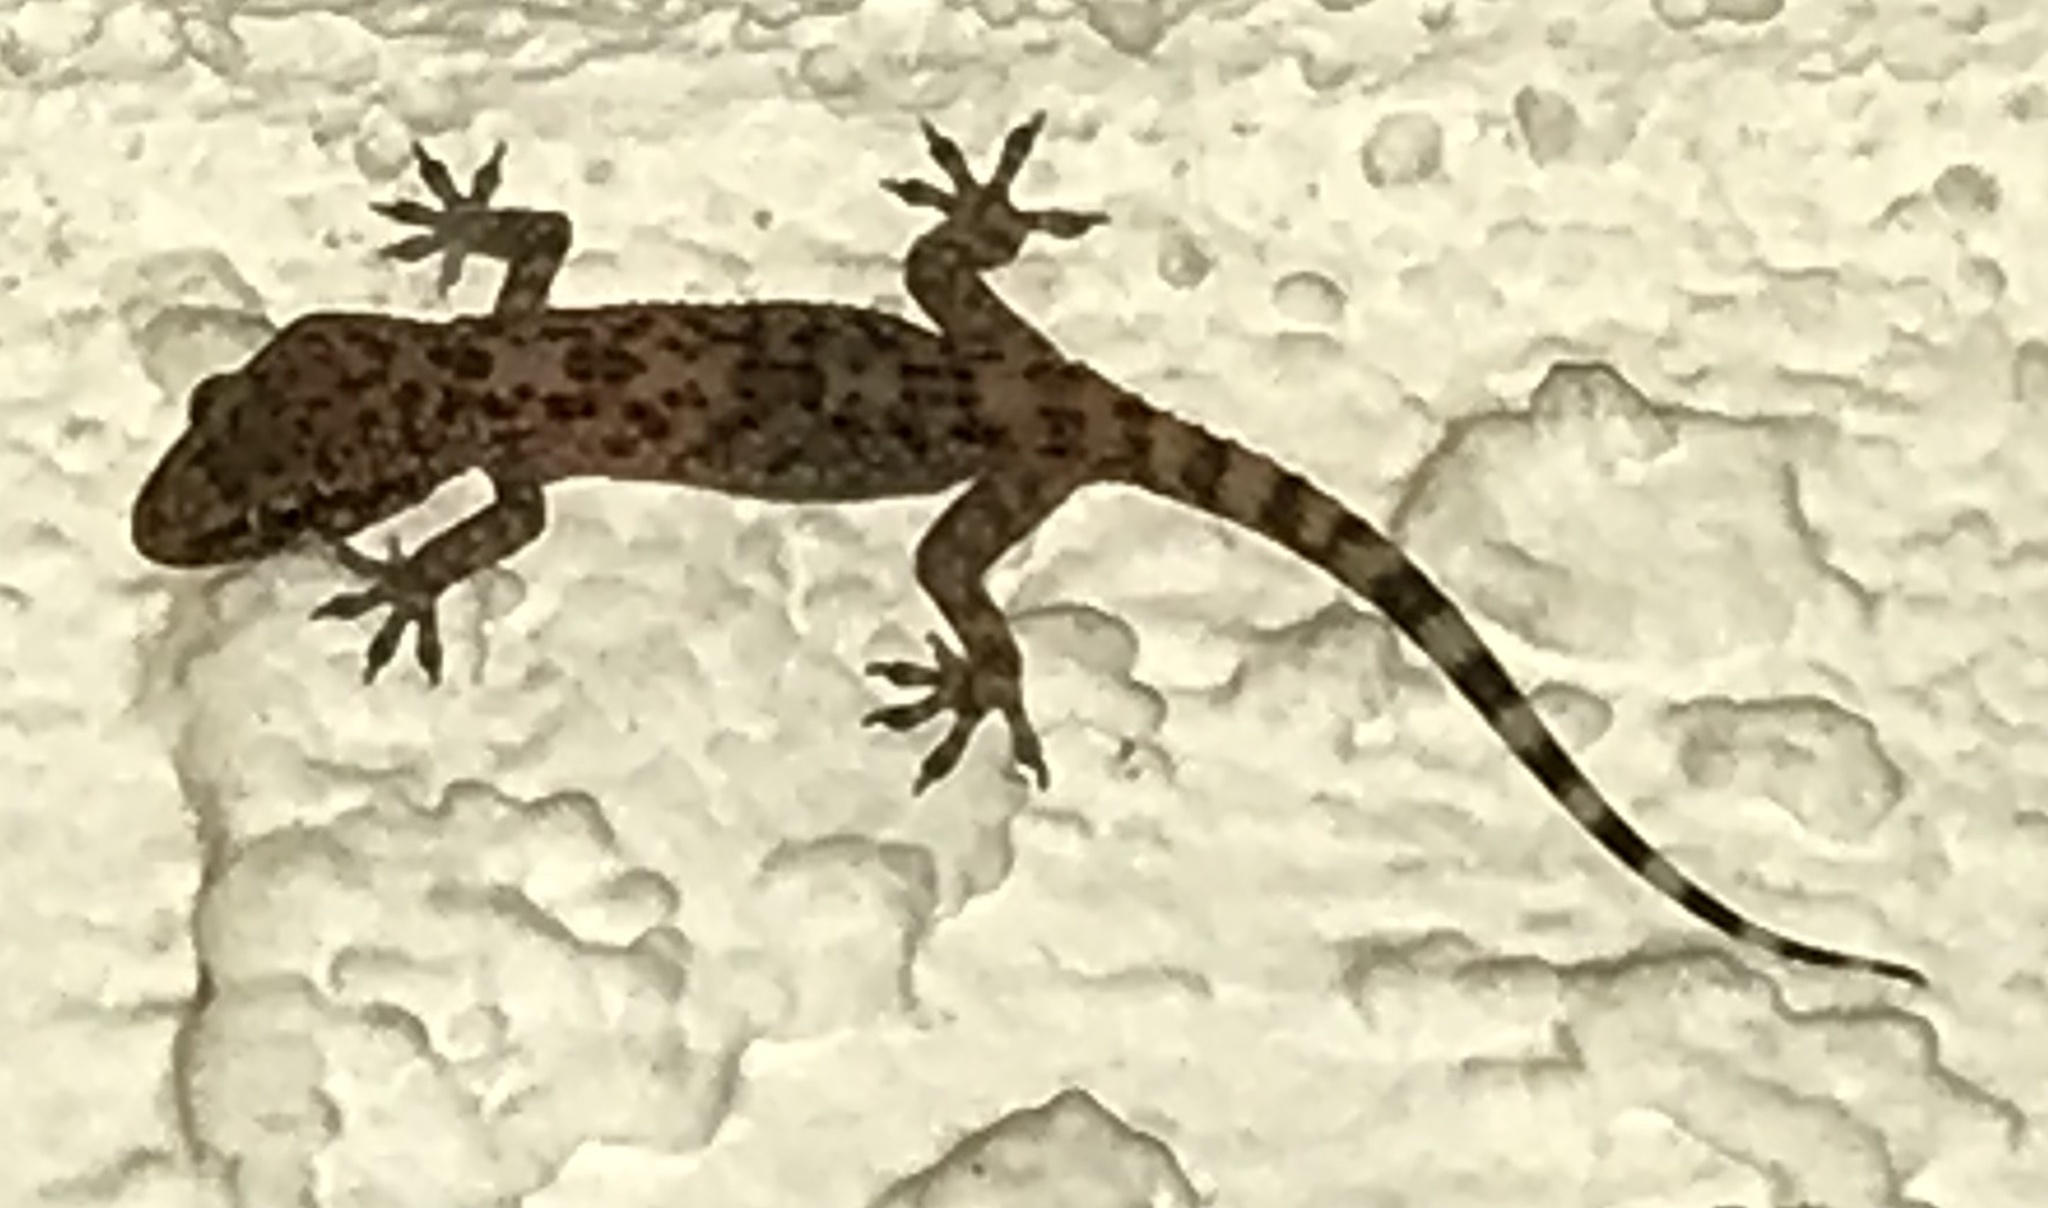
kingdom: Animalia
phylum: Chordata
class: Squamata
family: Gekkonidae
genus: Hemidactylus
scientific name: Hemidactylus turcicus
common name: Turkish gecko
